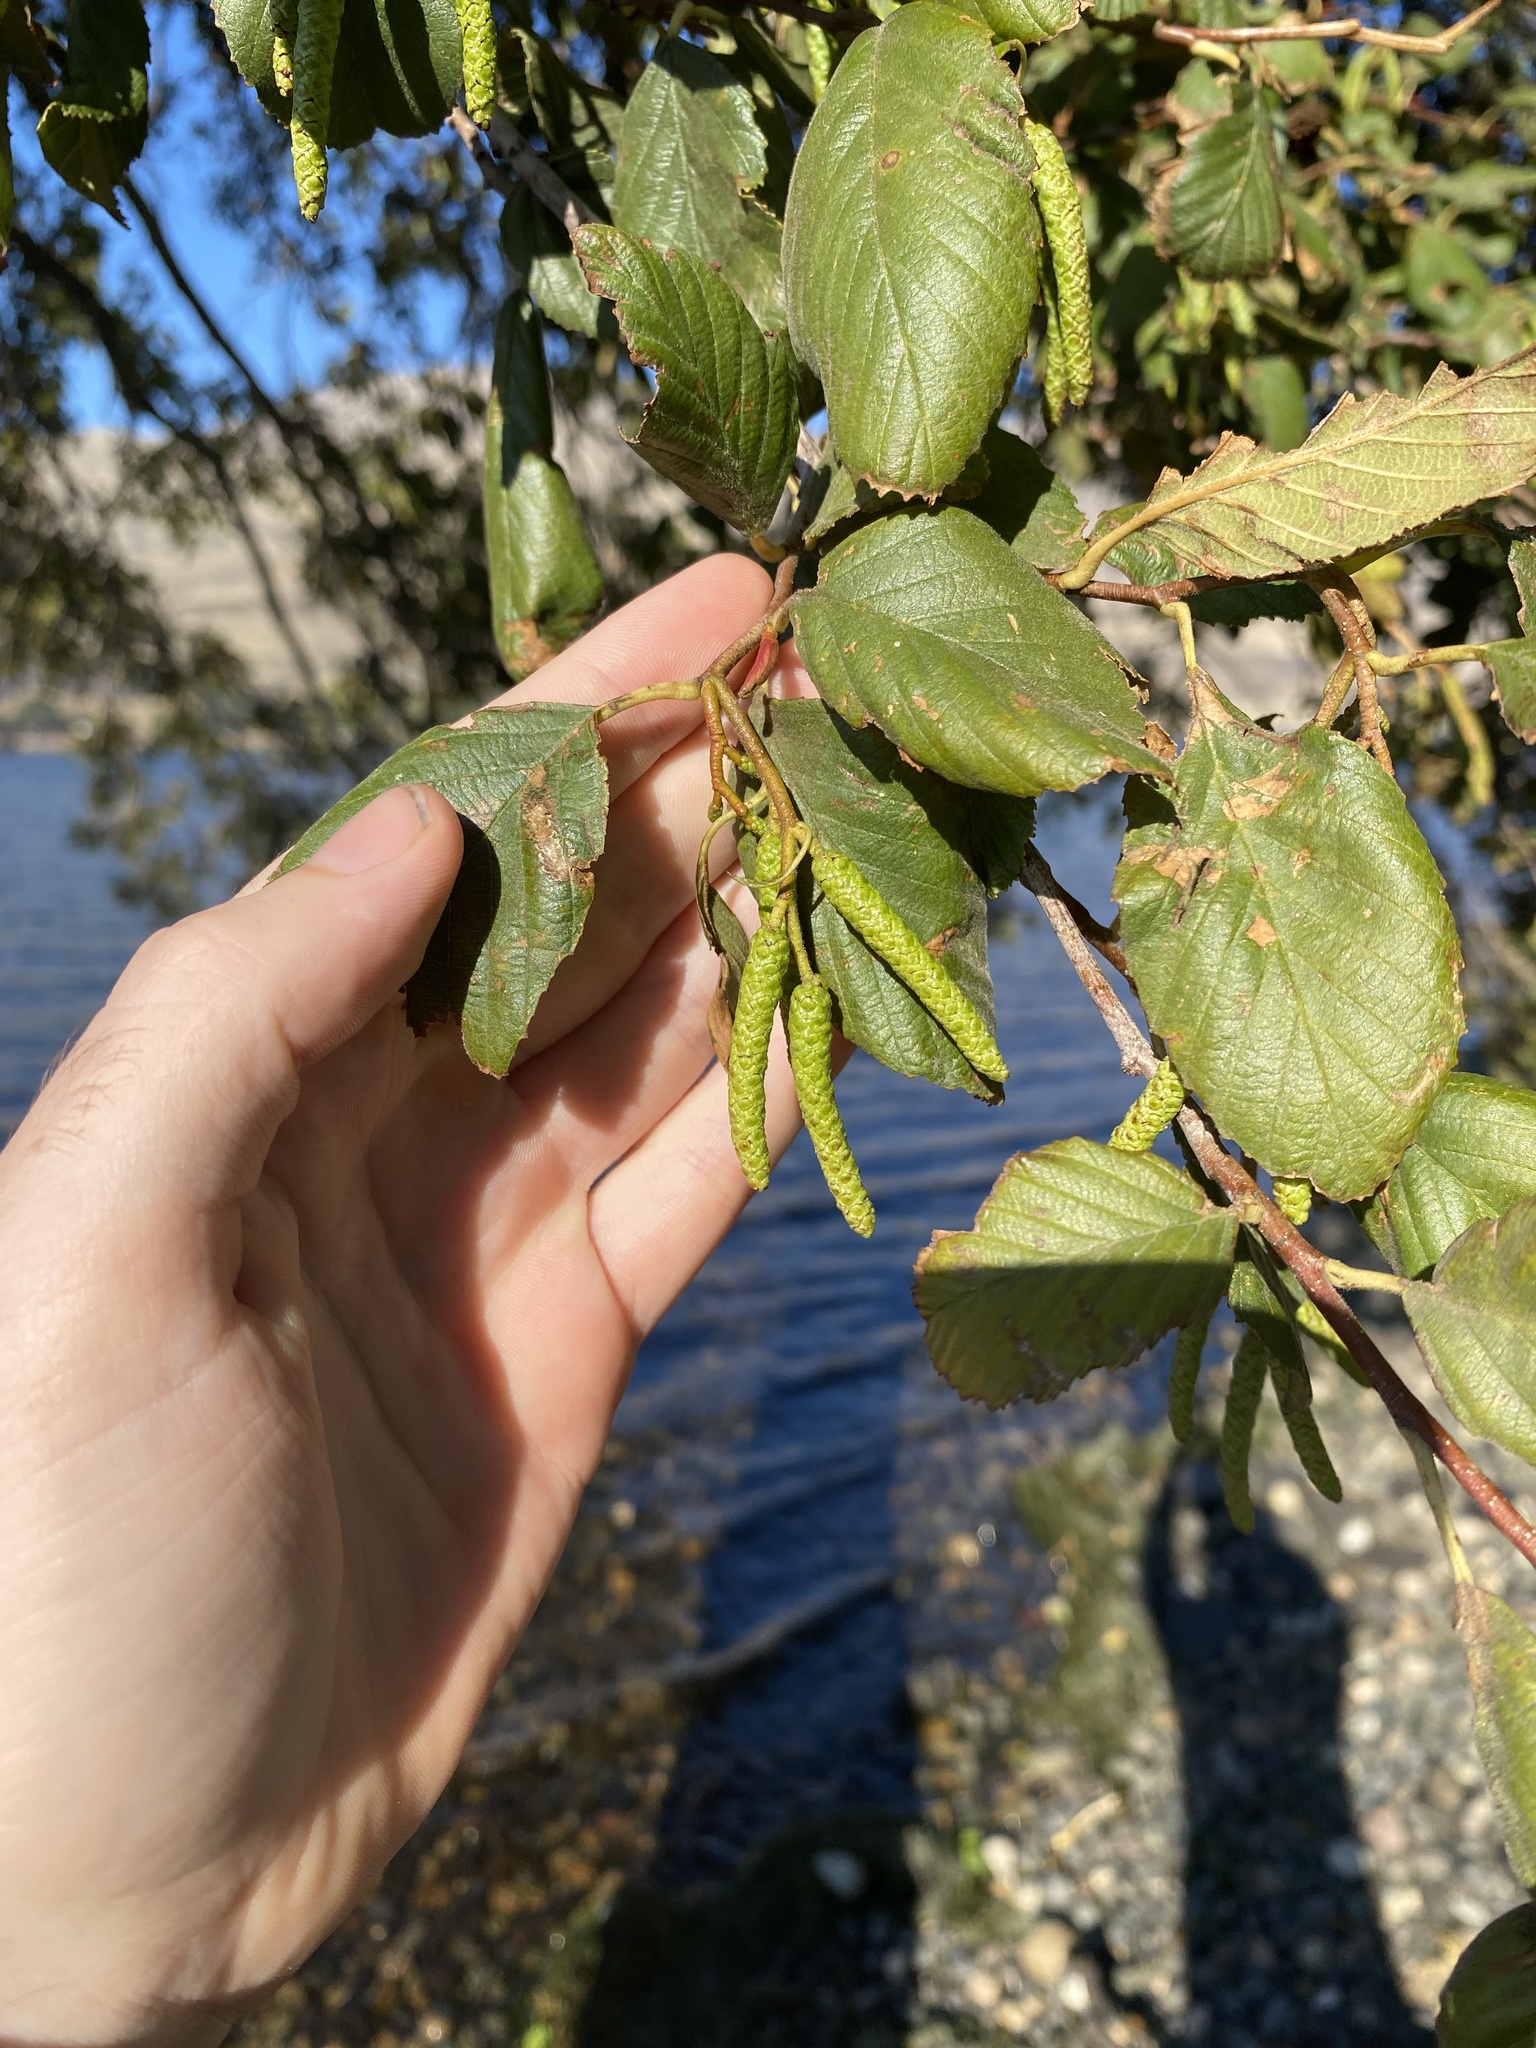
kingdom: Plantae
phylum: Tracheophyta
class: Magnoliopsida
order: Fagales
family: Betulaceae
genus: Alnus
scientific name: Alnus rhombifolia
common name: California alder
